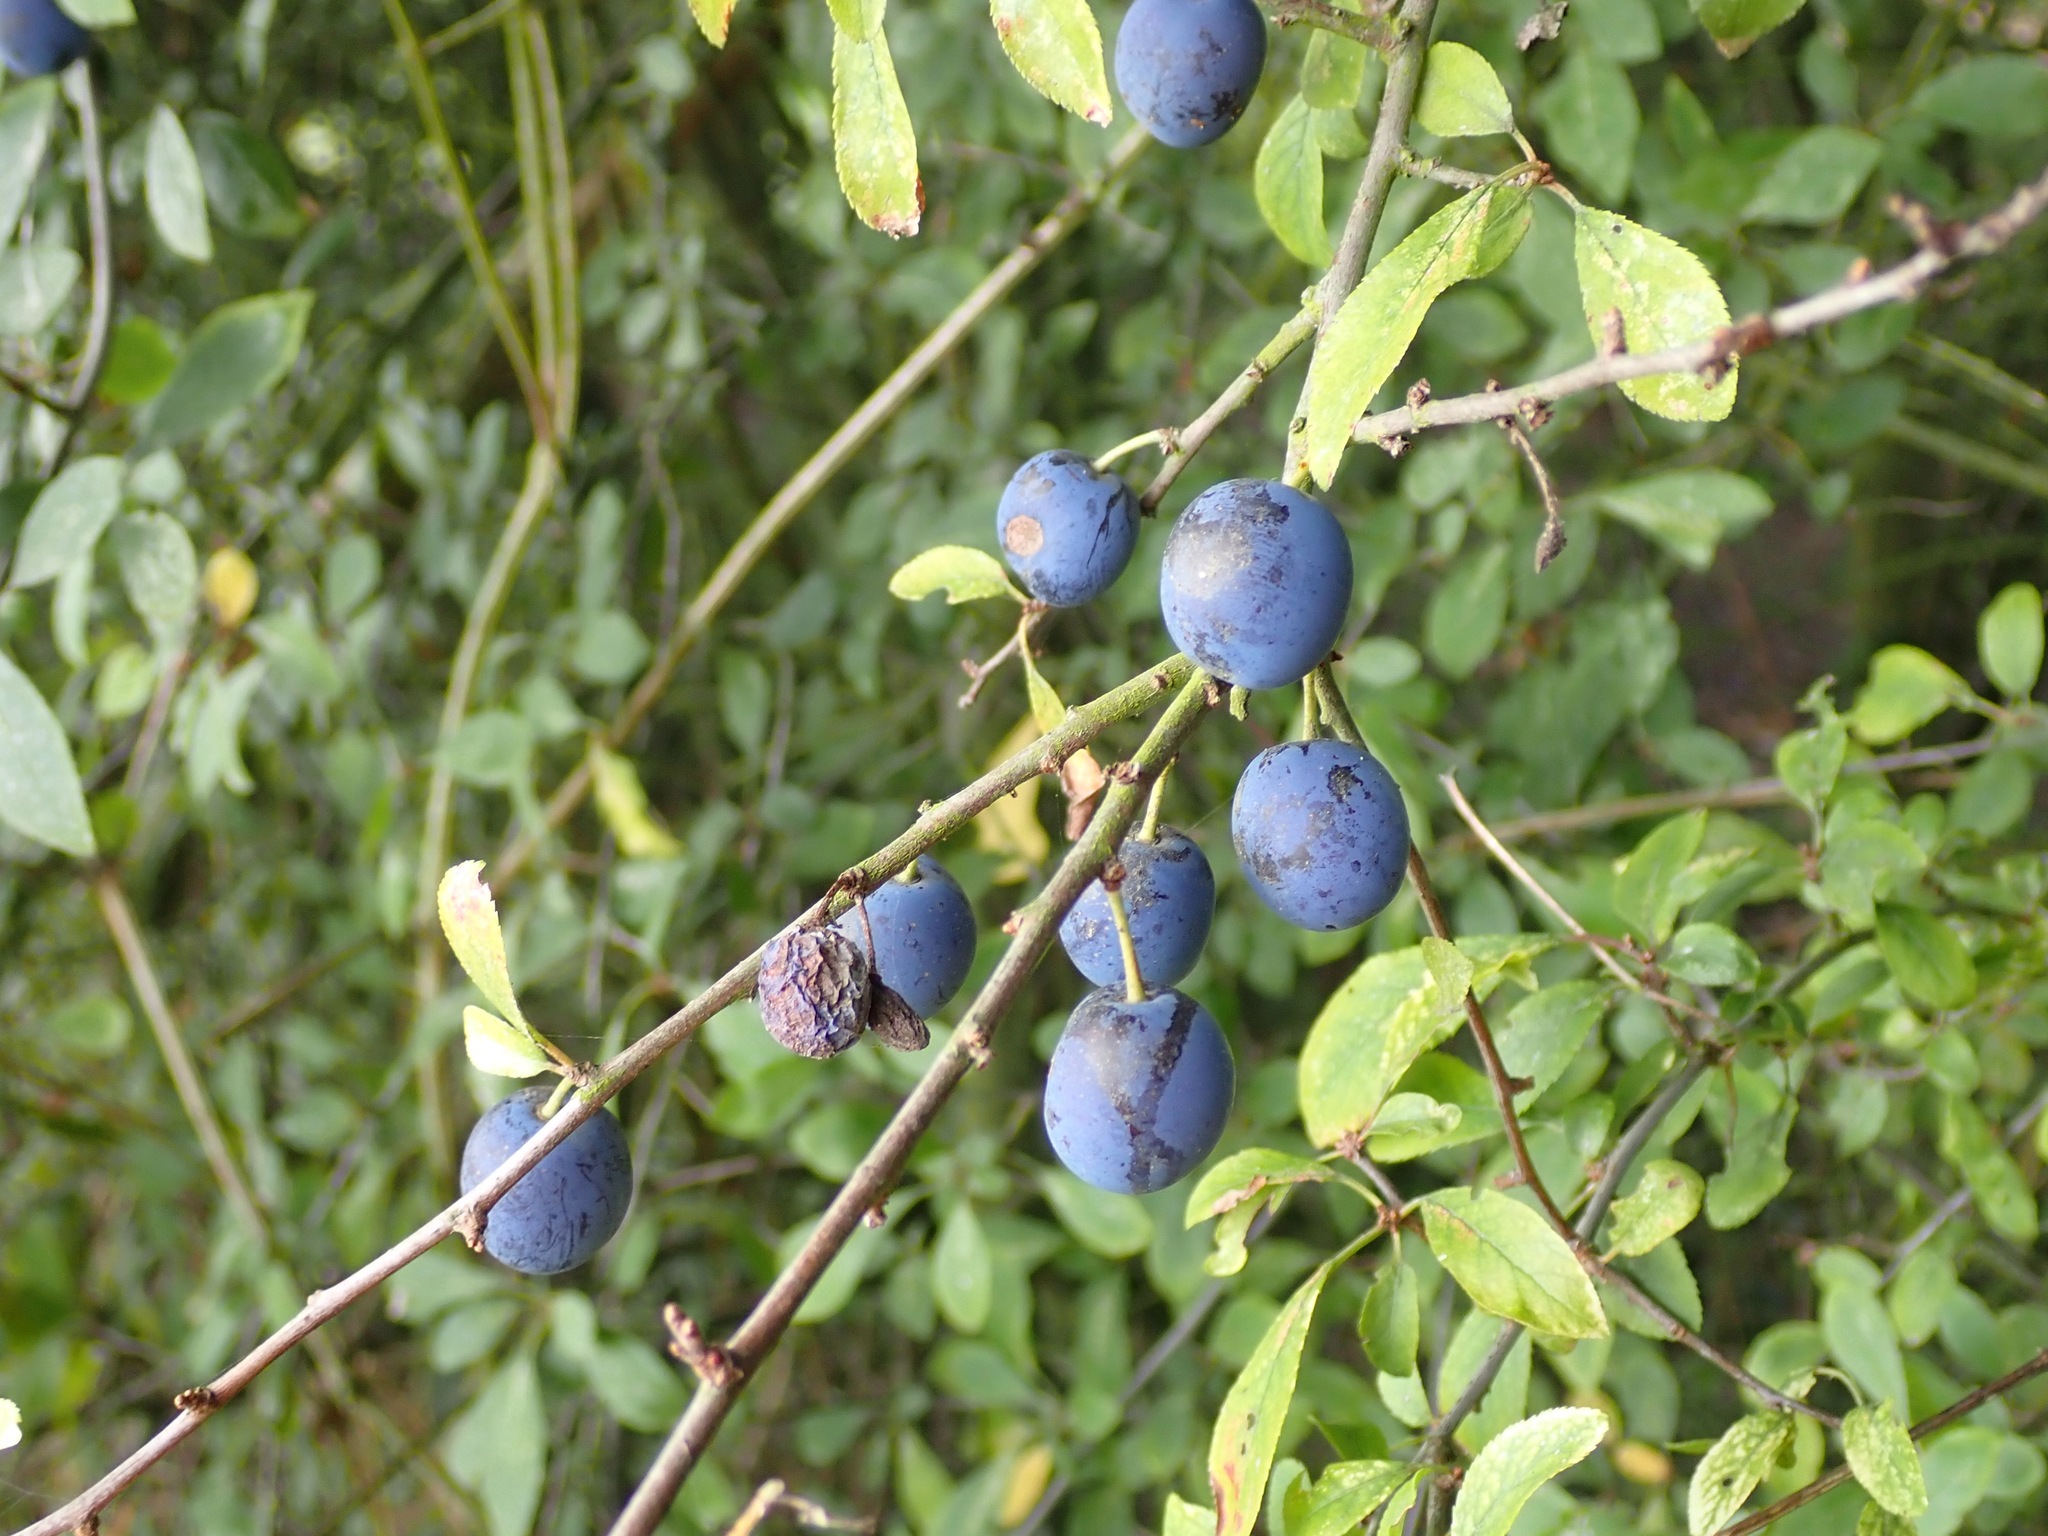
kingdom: Plantae
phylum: Tracheophyta
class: Magnoliopsida
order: Rosales
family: Rosaceae
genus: Prunus
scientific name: Prunus spinosa
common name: Blackthorn
